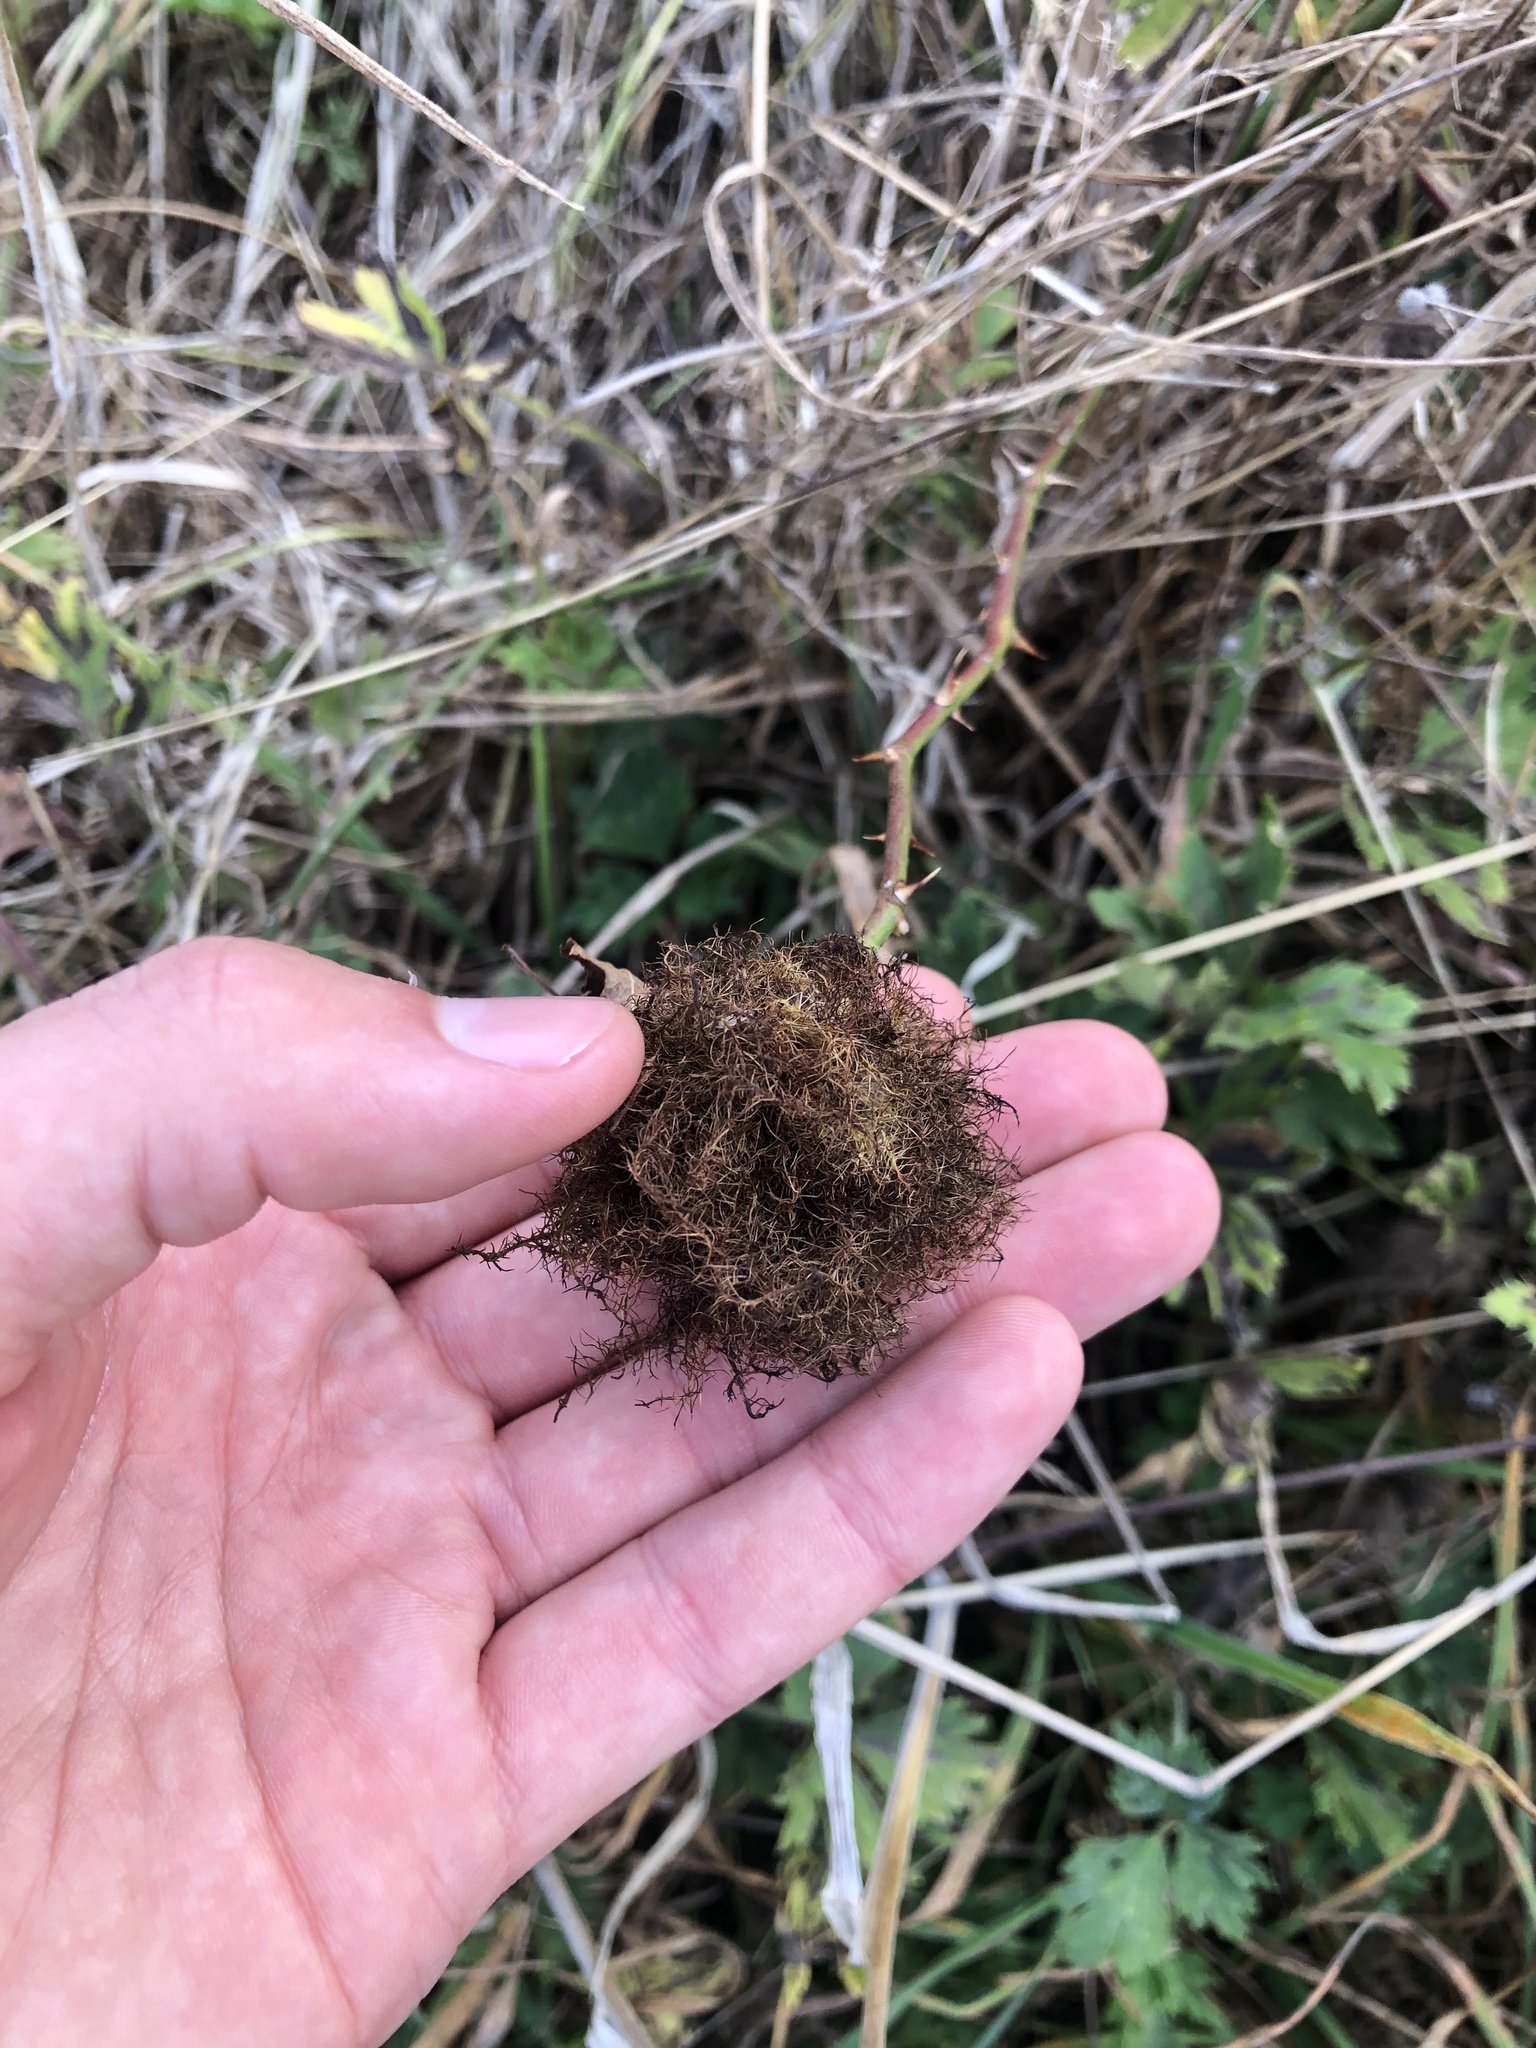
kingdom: Animalia
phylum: Arthropoda
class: Insecta
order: Hymenoptera
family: Cynipidae
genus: Diplolepis
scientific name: Diplolepis rosae
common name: Bedeguar gall
